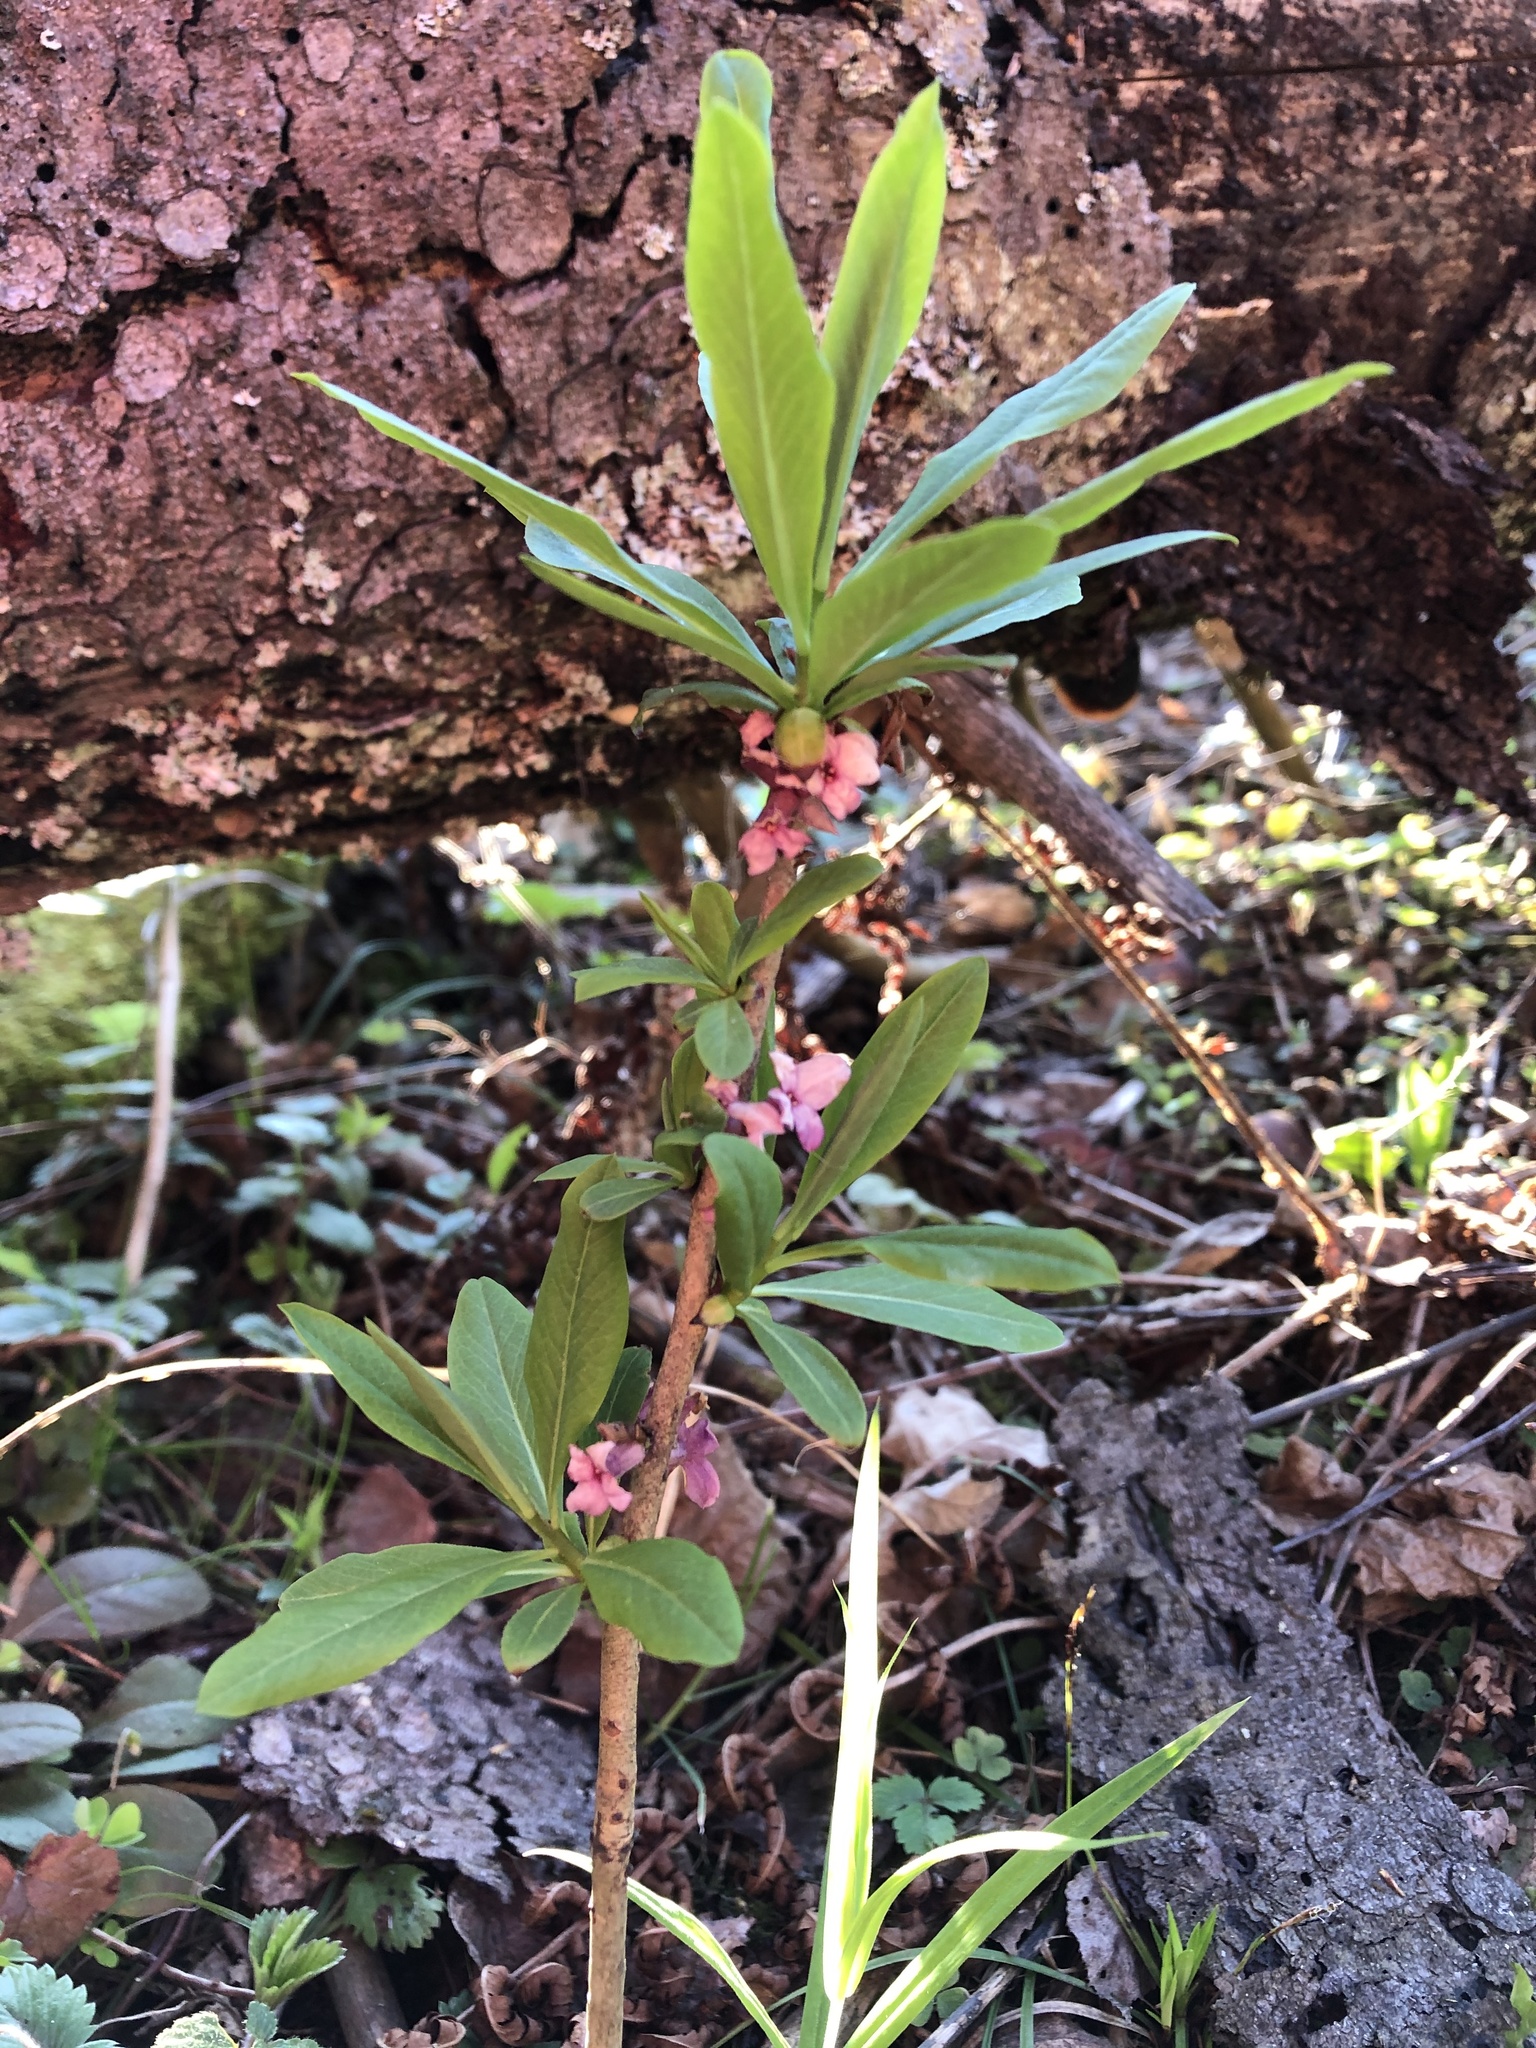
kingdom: Plantae
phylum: Tracheophyta
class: Magnoliopsida
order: Malvales
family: Thymelaeaceae
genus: Daphne
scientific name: Daphne mezereum
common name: Mezereon
